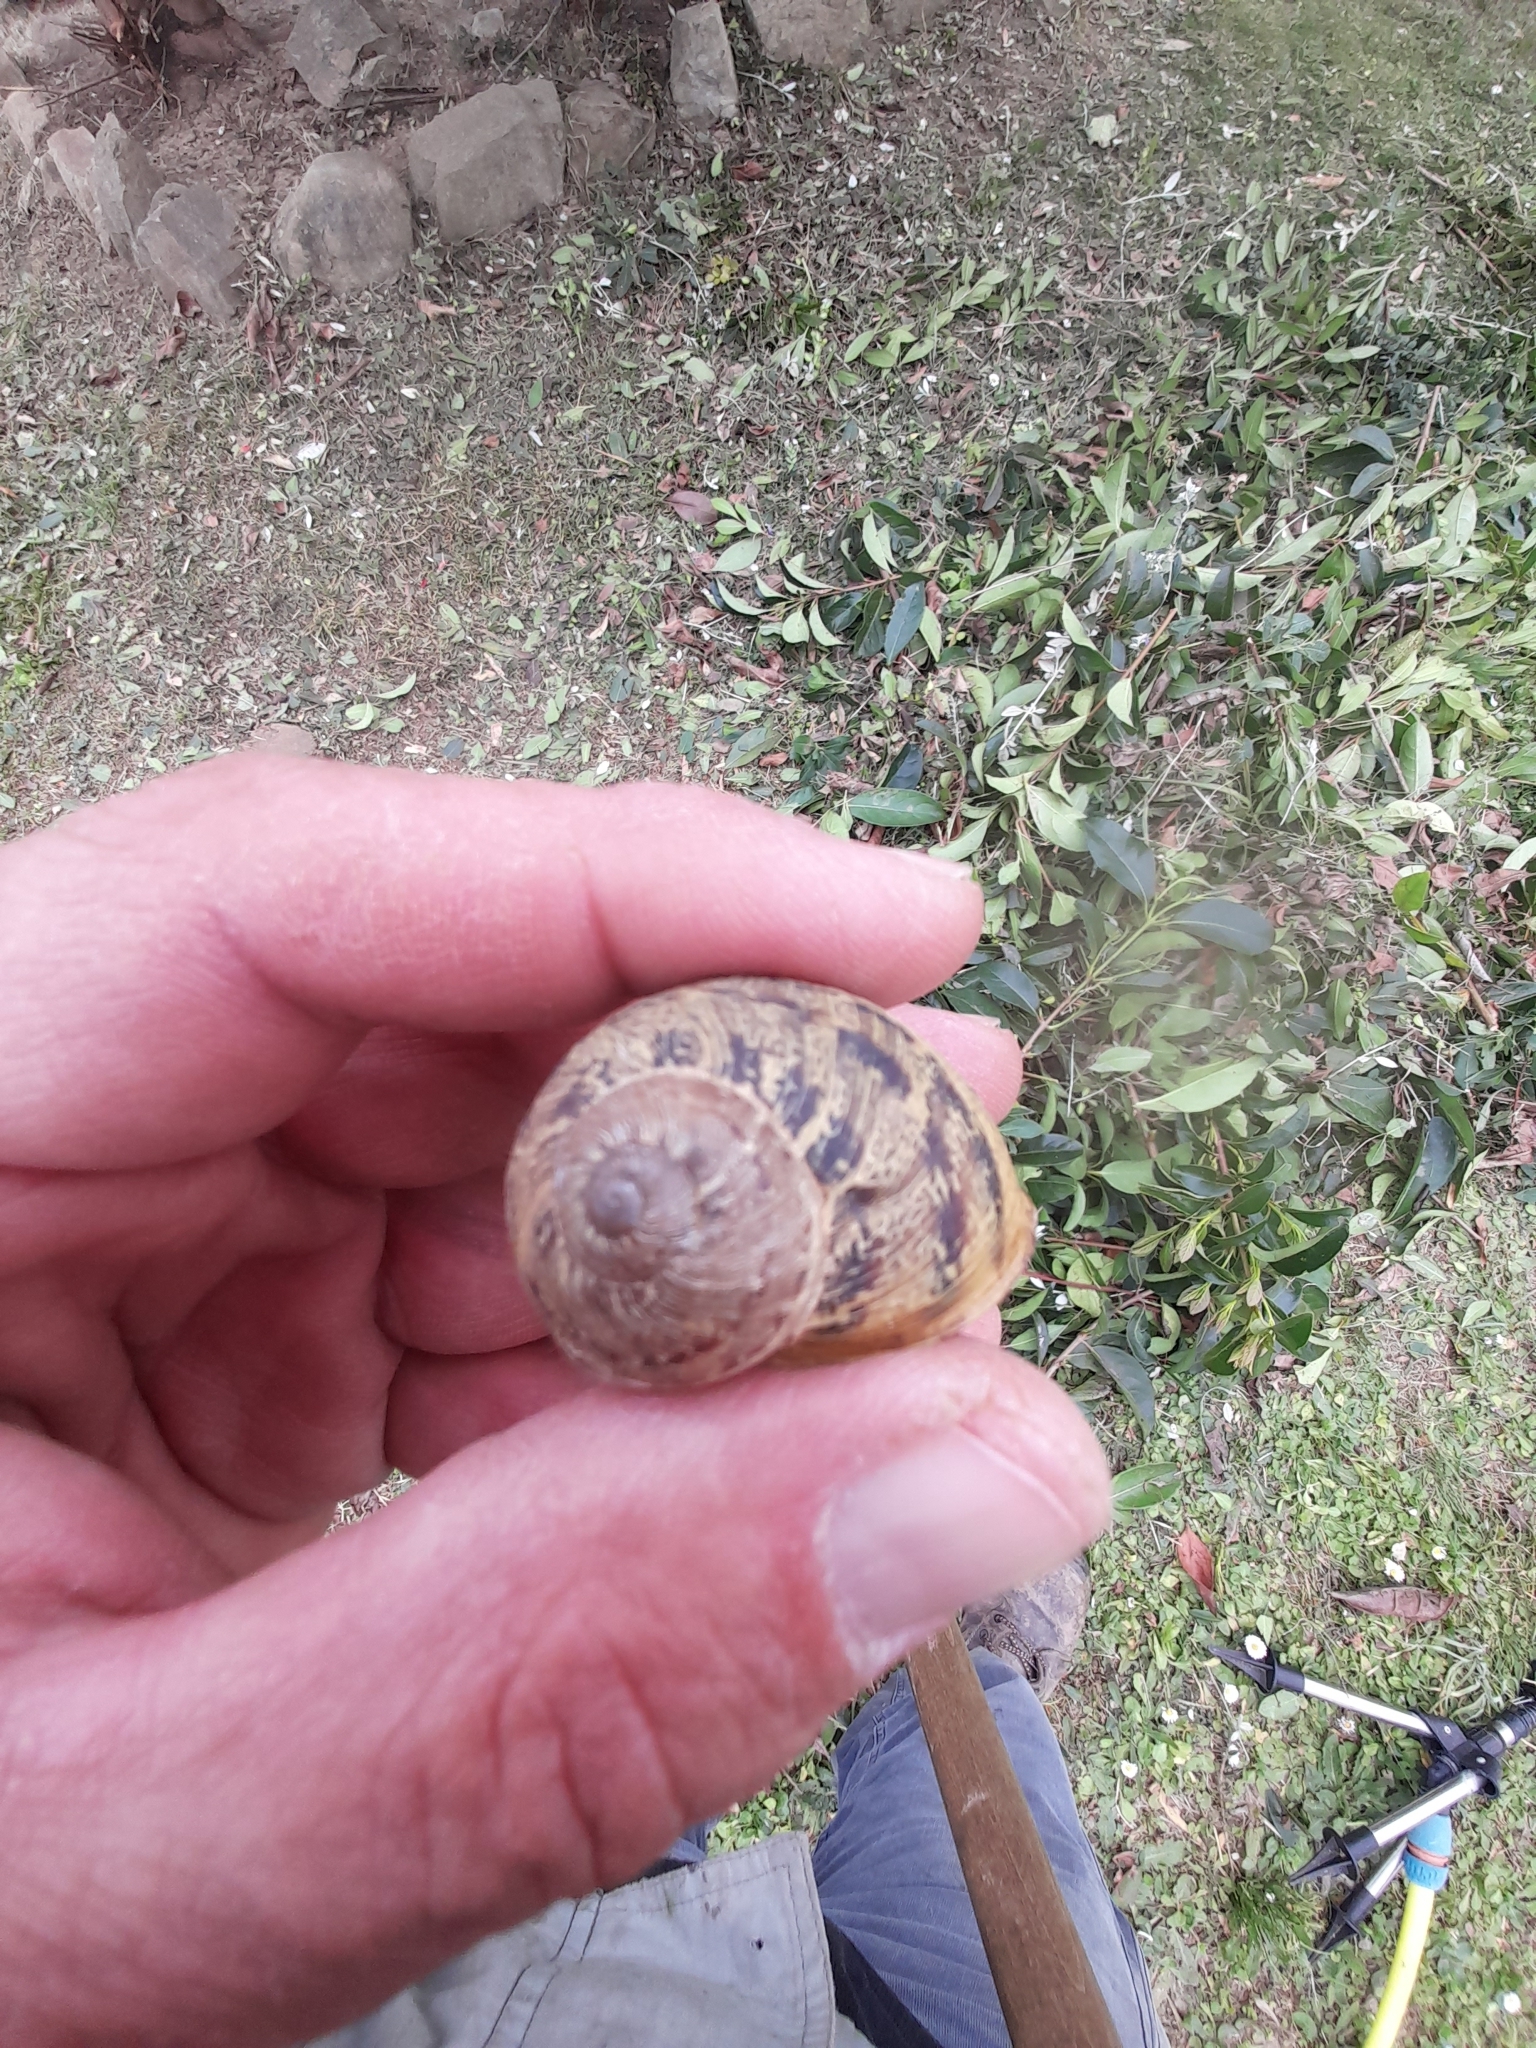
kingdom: Animalia
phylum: Mollusca
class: Gastropoda
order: Stylommatophora
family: Helicidae
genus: Cornu
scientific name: Cornu aspersum
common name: Brown garden snail
